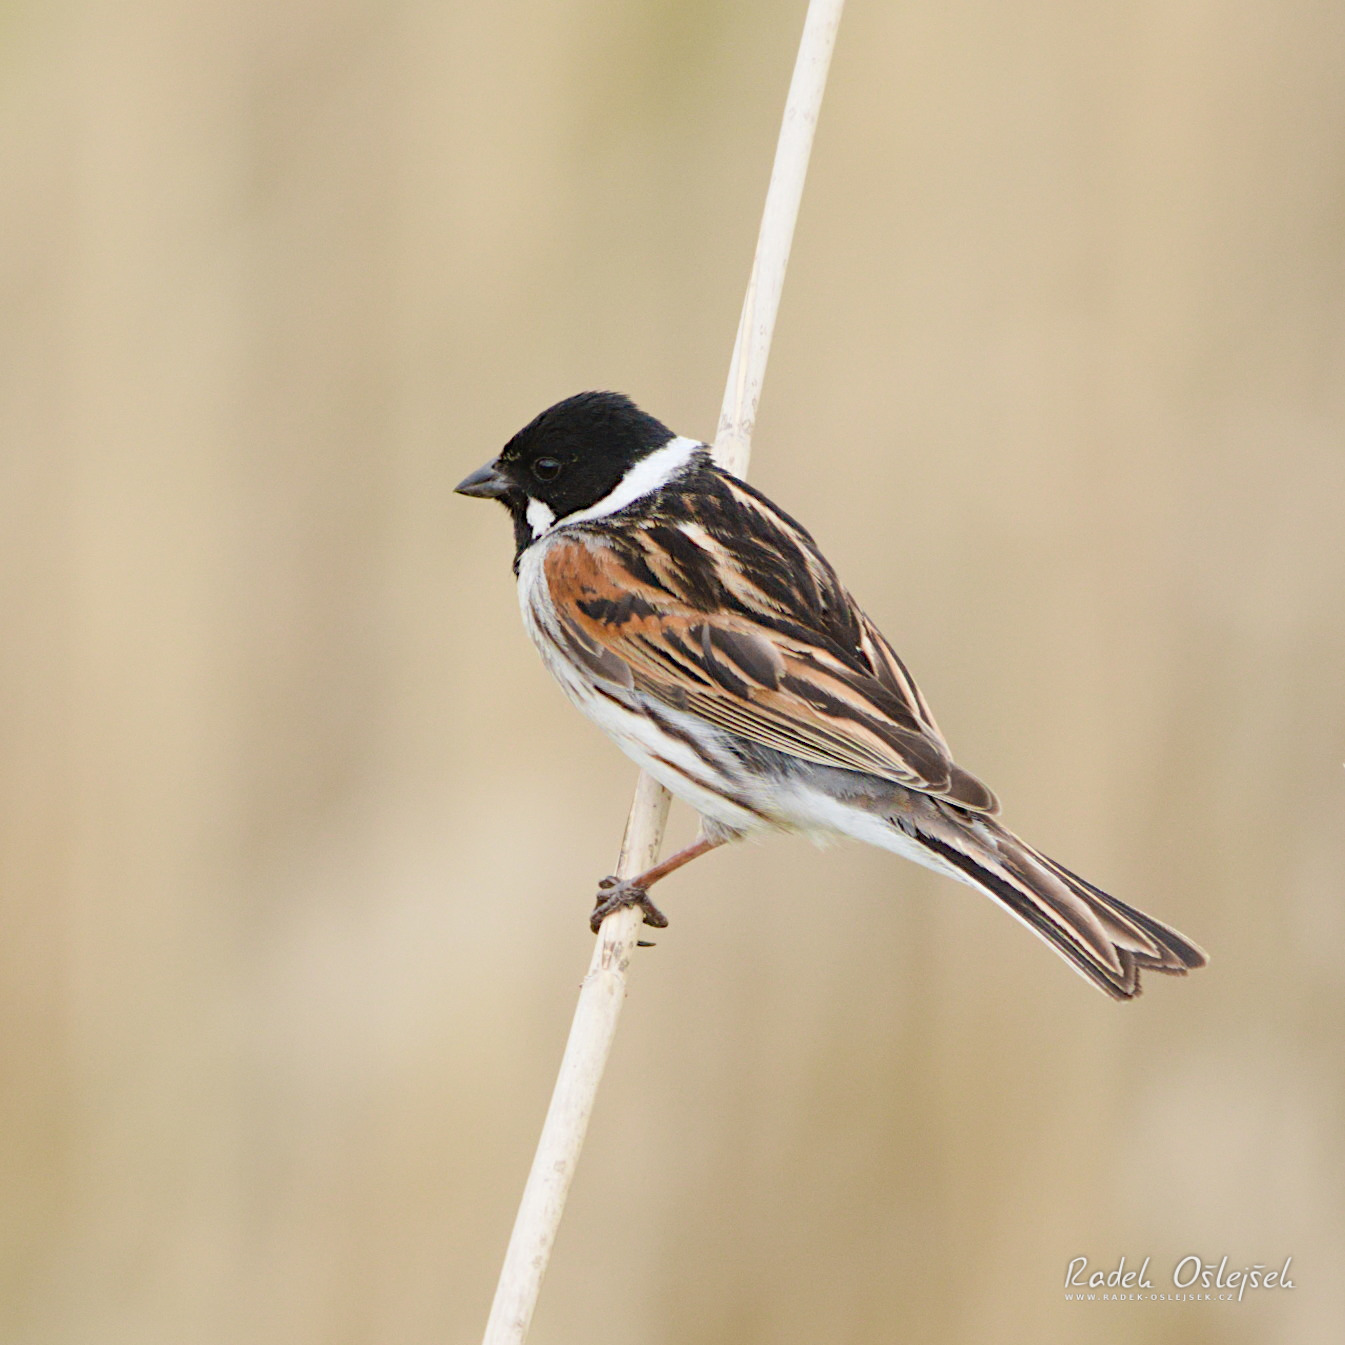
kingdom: Animalia
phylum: Chordata
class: Aves
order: Passeriformes
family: Emberizidae
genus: Emberiza
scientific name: Emberiza schoeniclus
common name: Reed bunting
